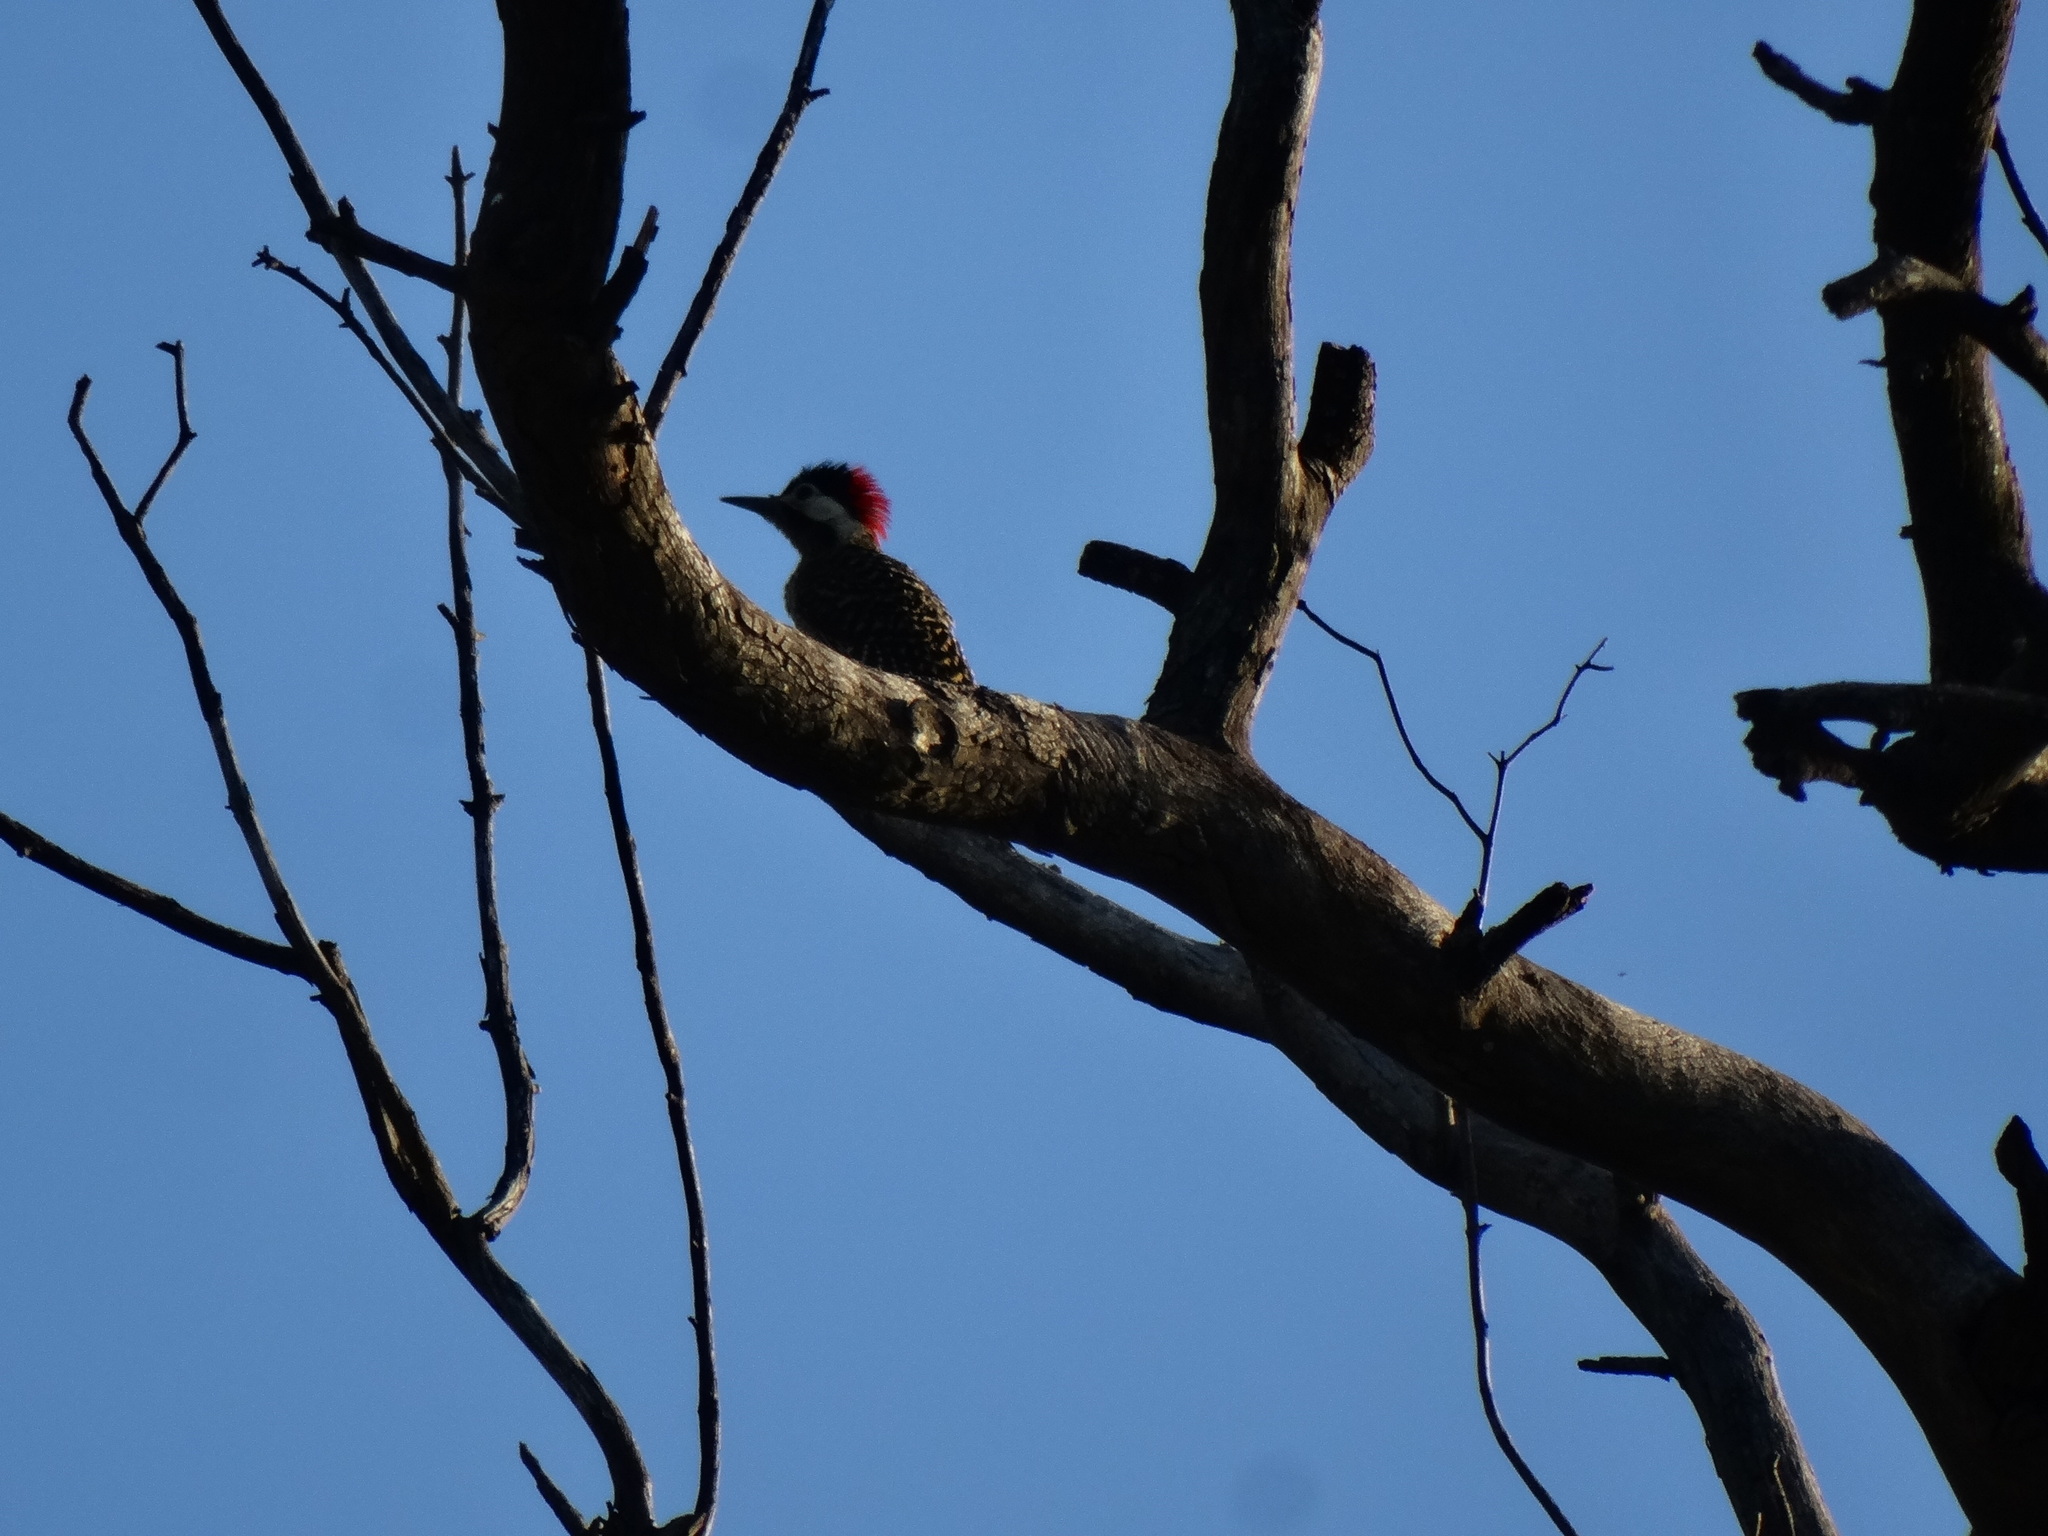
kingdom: Animalia
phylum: Chordata
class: Aves
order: Piciformes
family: Picidae
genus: Colaptes
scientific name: Colaptes melanochloros
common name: Green-barred woodpecker
